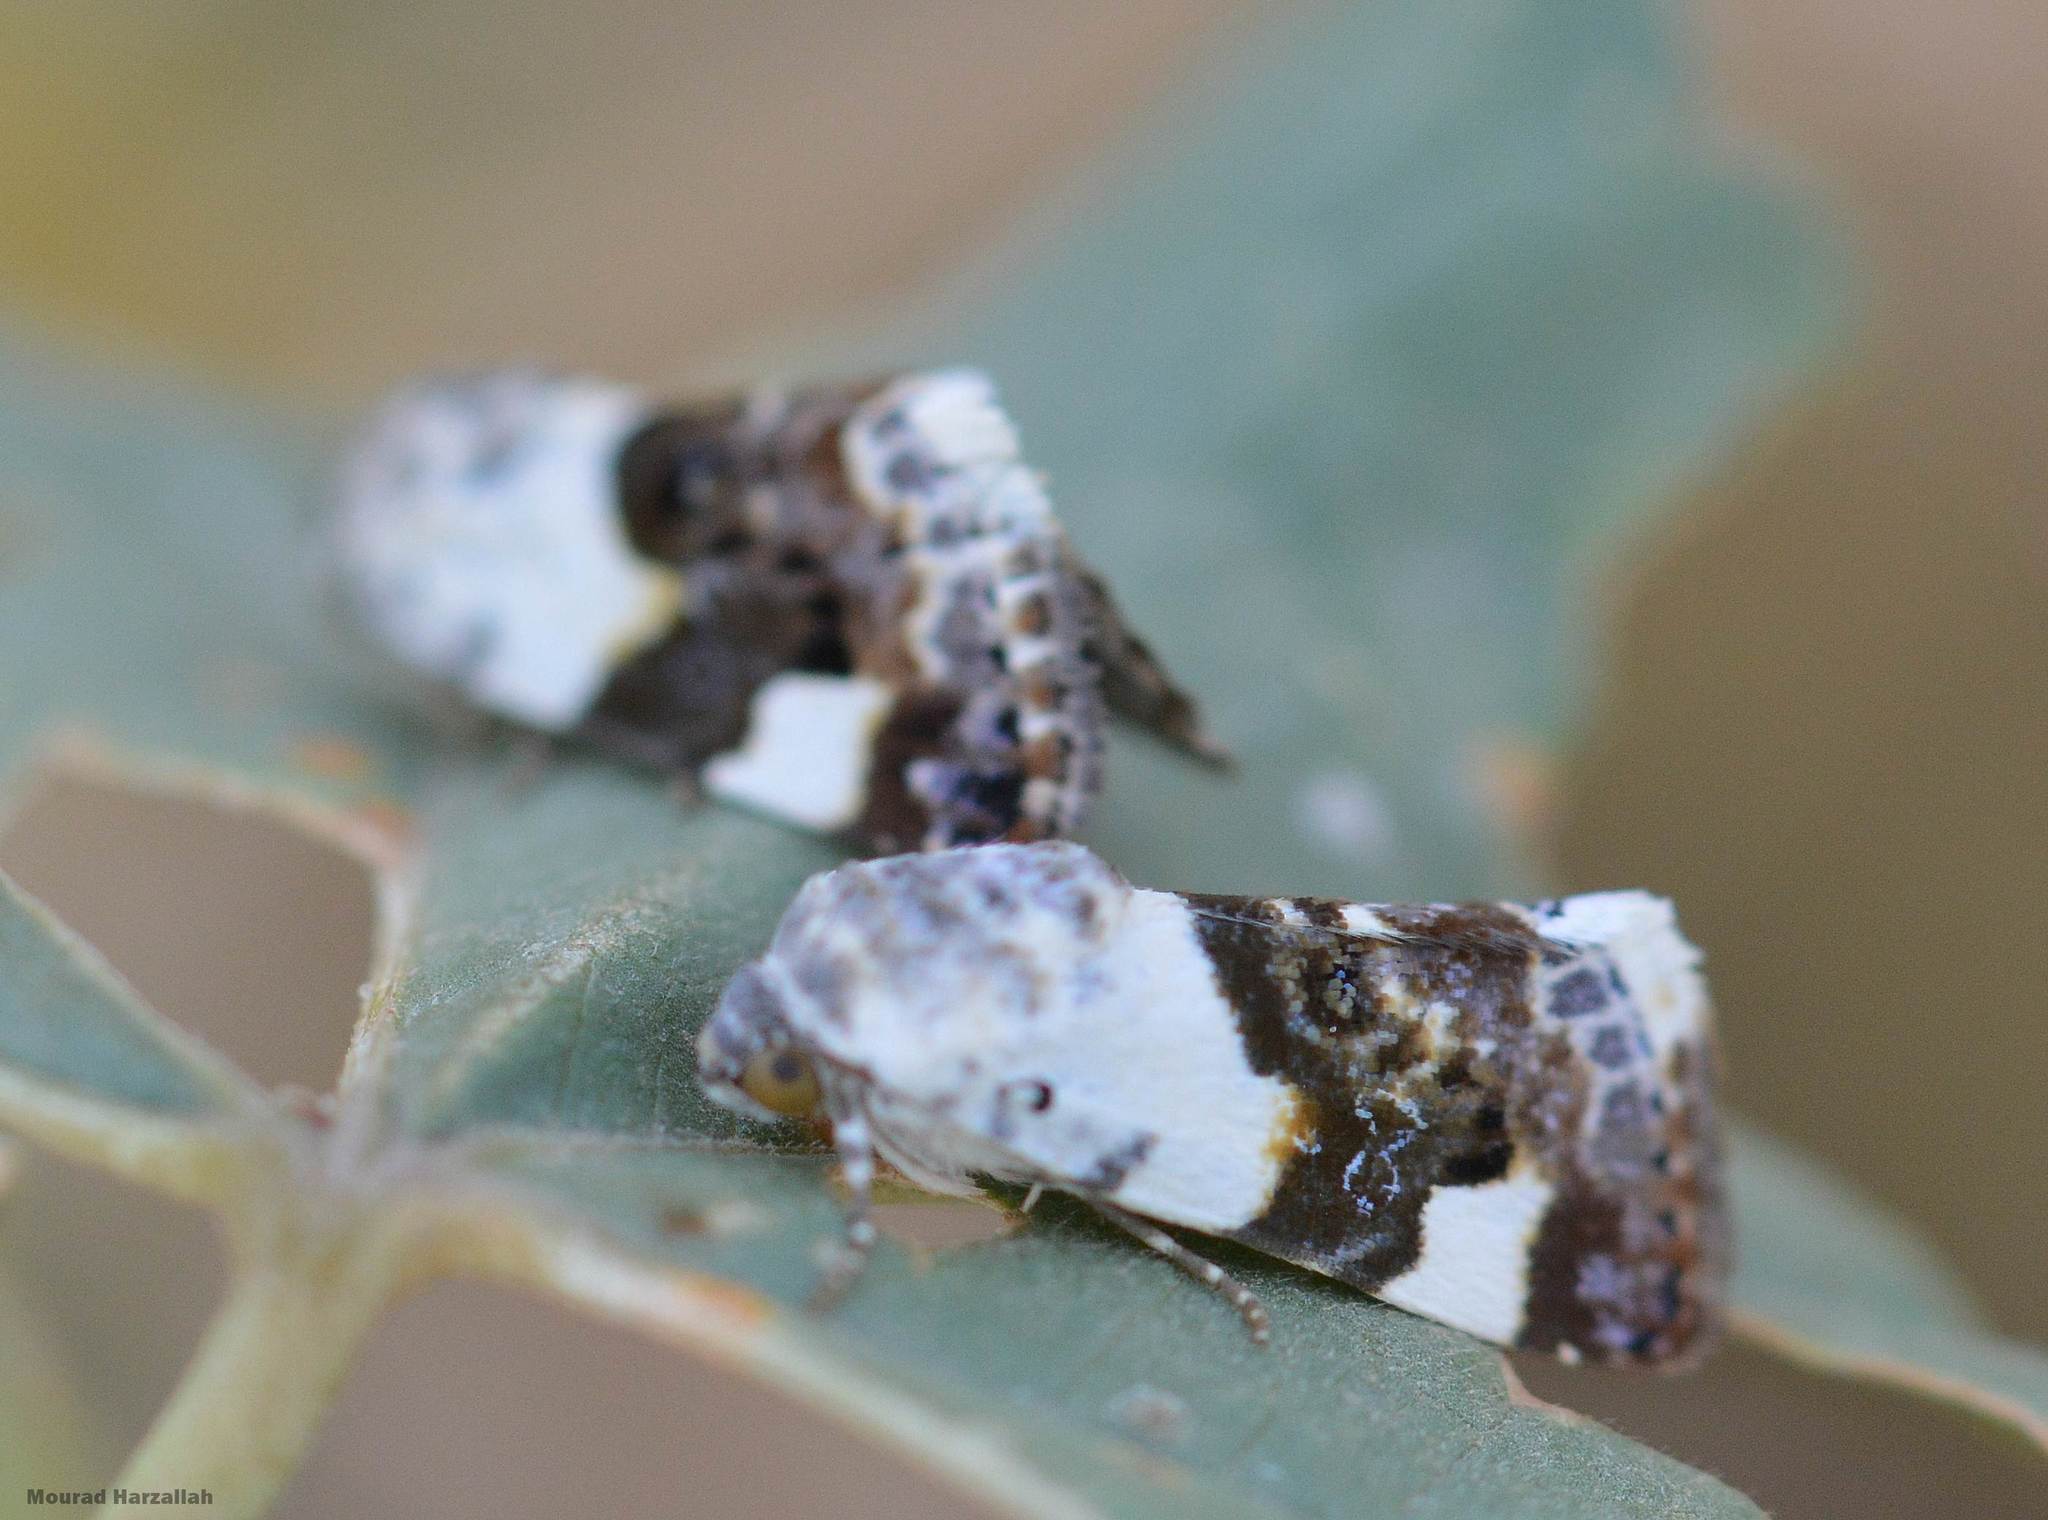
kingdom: Animalia
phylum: Arthropoda
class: Insecta
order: Lepidoptera
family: Noctuidae
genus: Acontia
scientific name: Acontia lucida
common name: Pale shoulder
